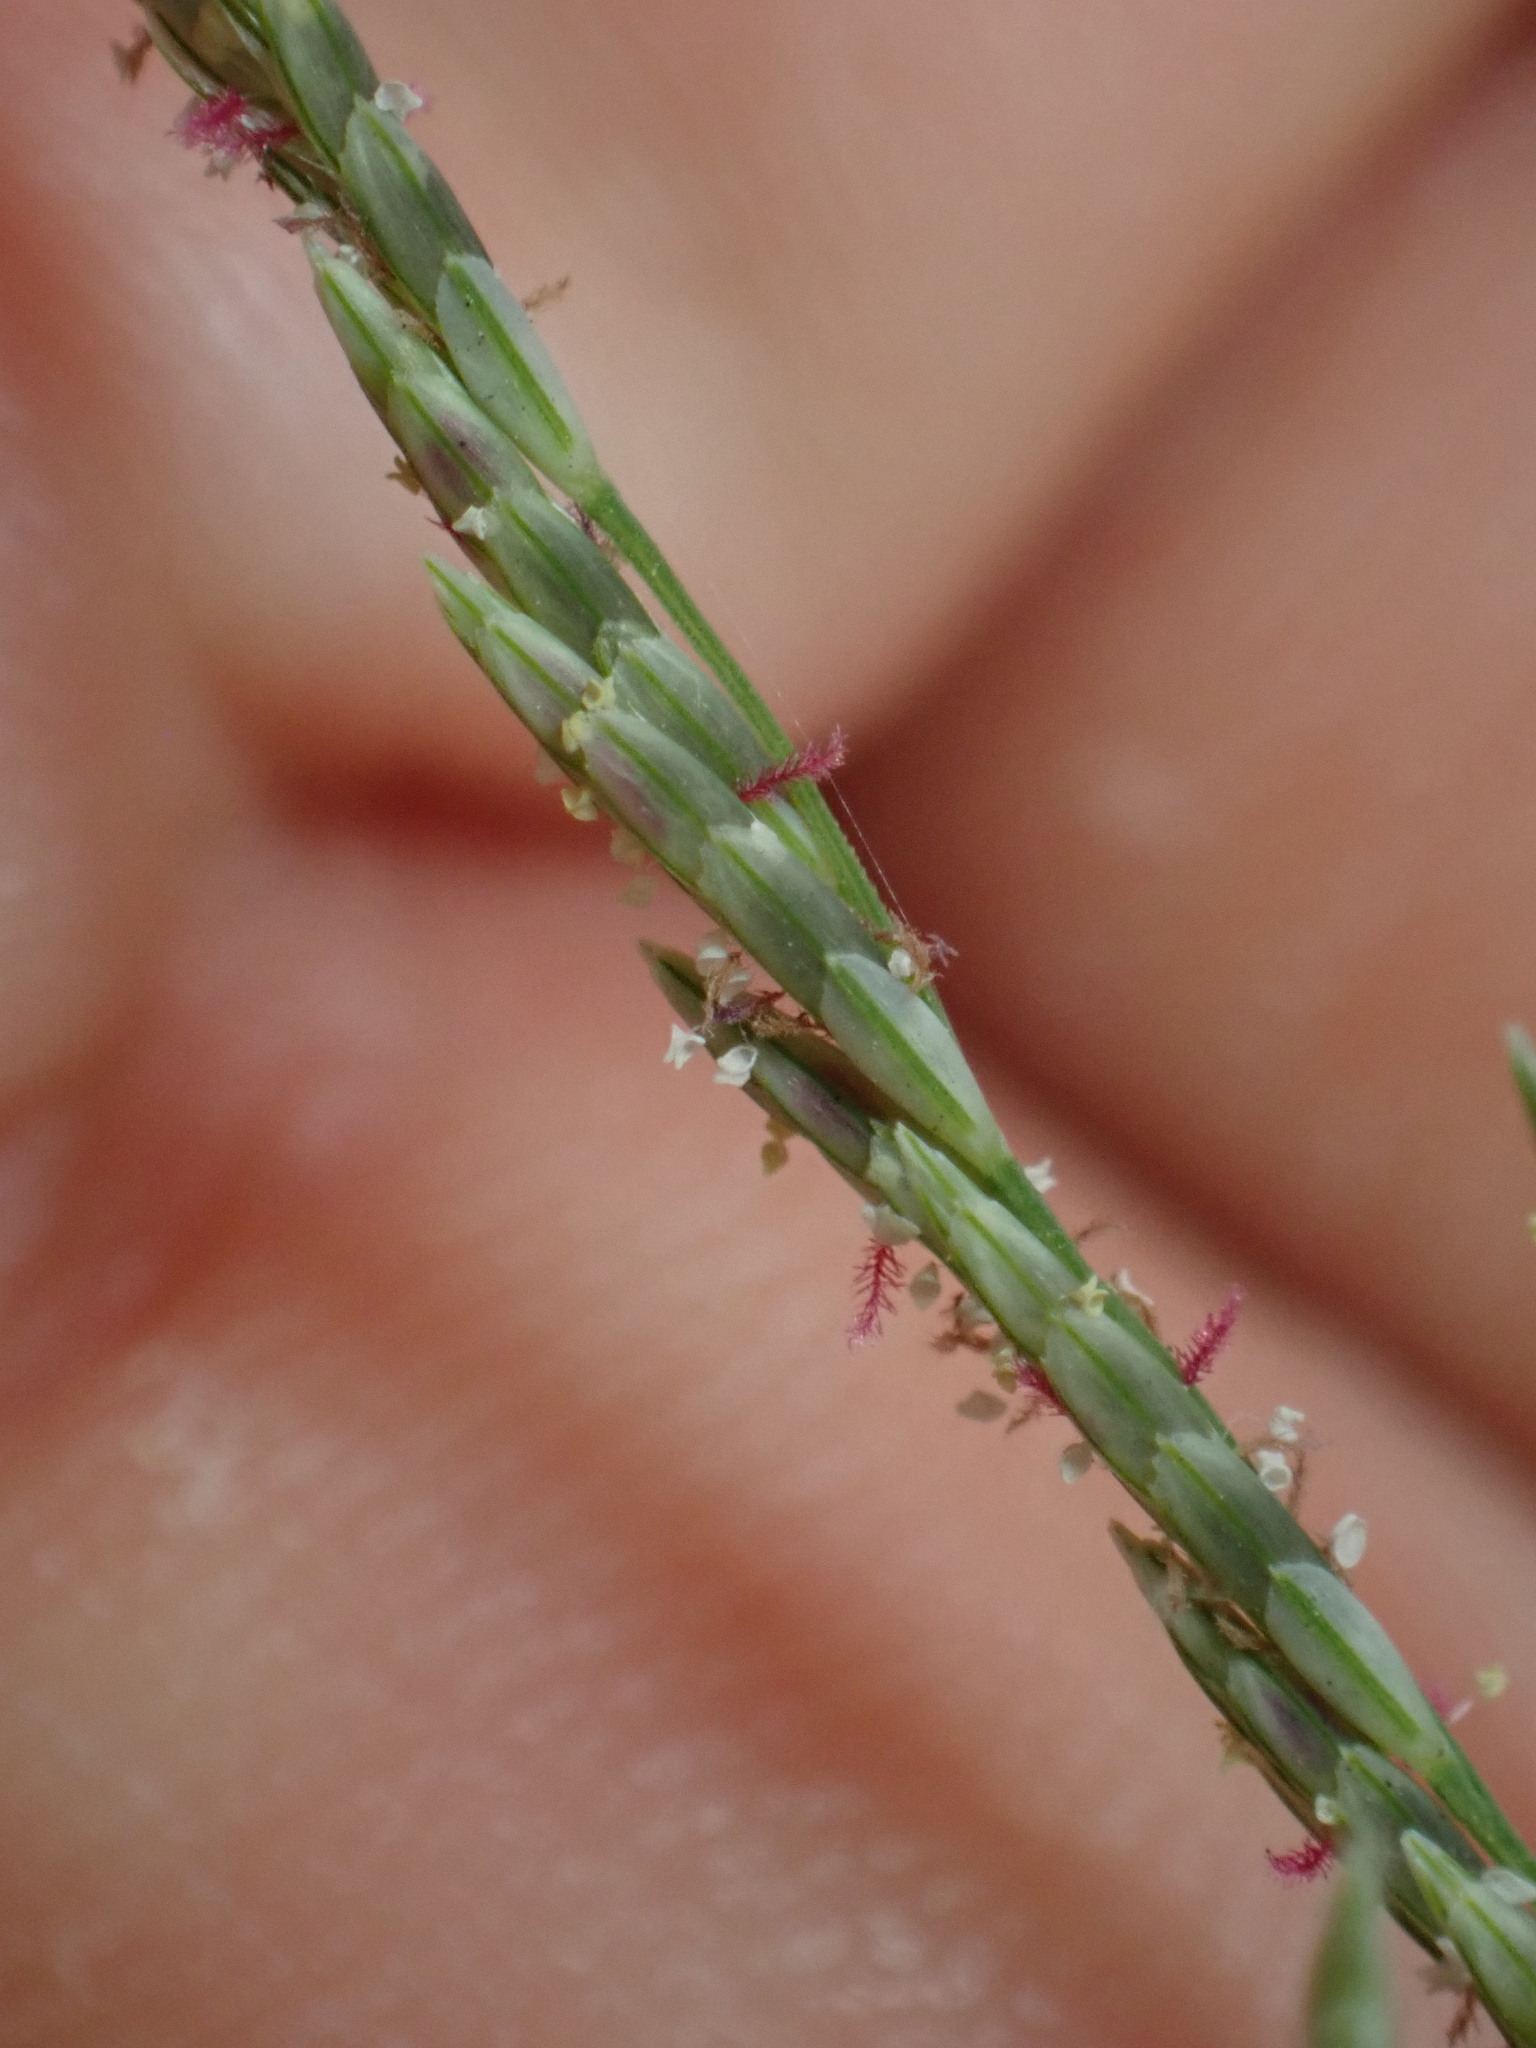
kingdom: Plantae
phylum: Tracheophyta
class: Liliopsida
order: Poales
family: Poaceae
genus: Diplachne
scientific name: Diplachne fusca
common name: Brown beetle grass
